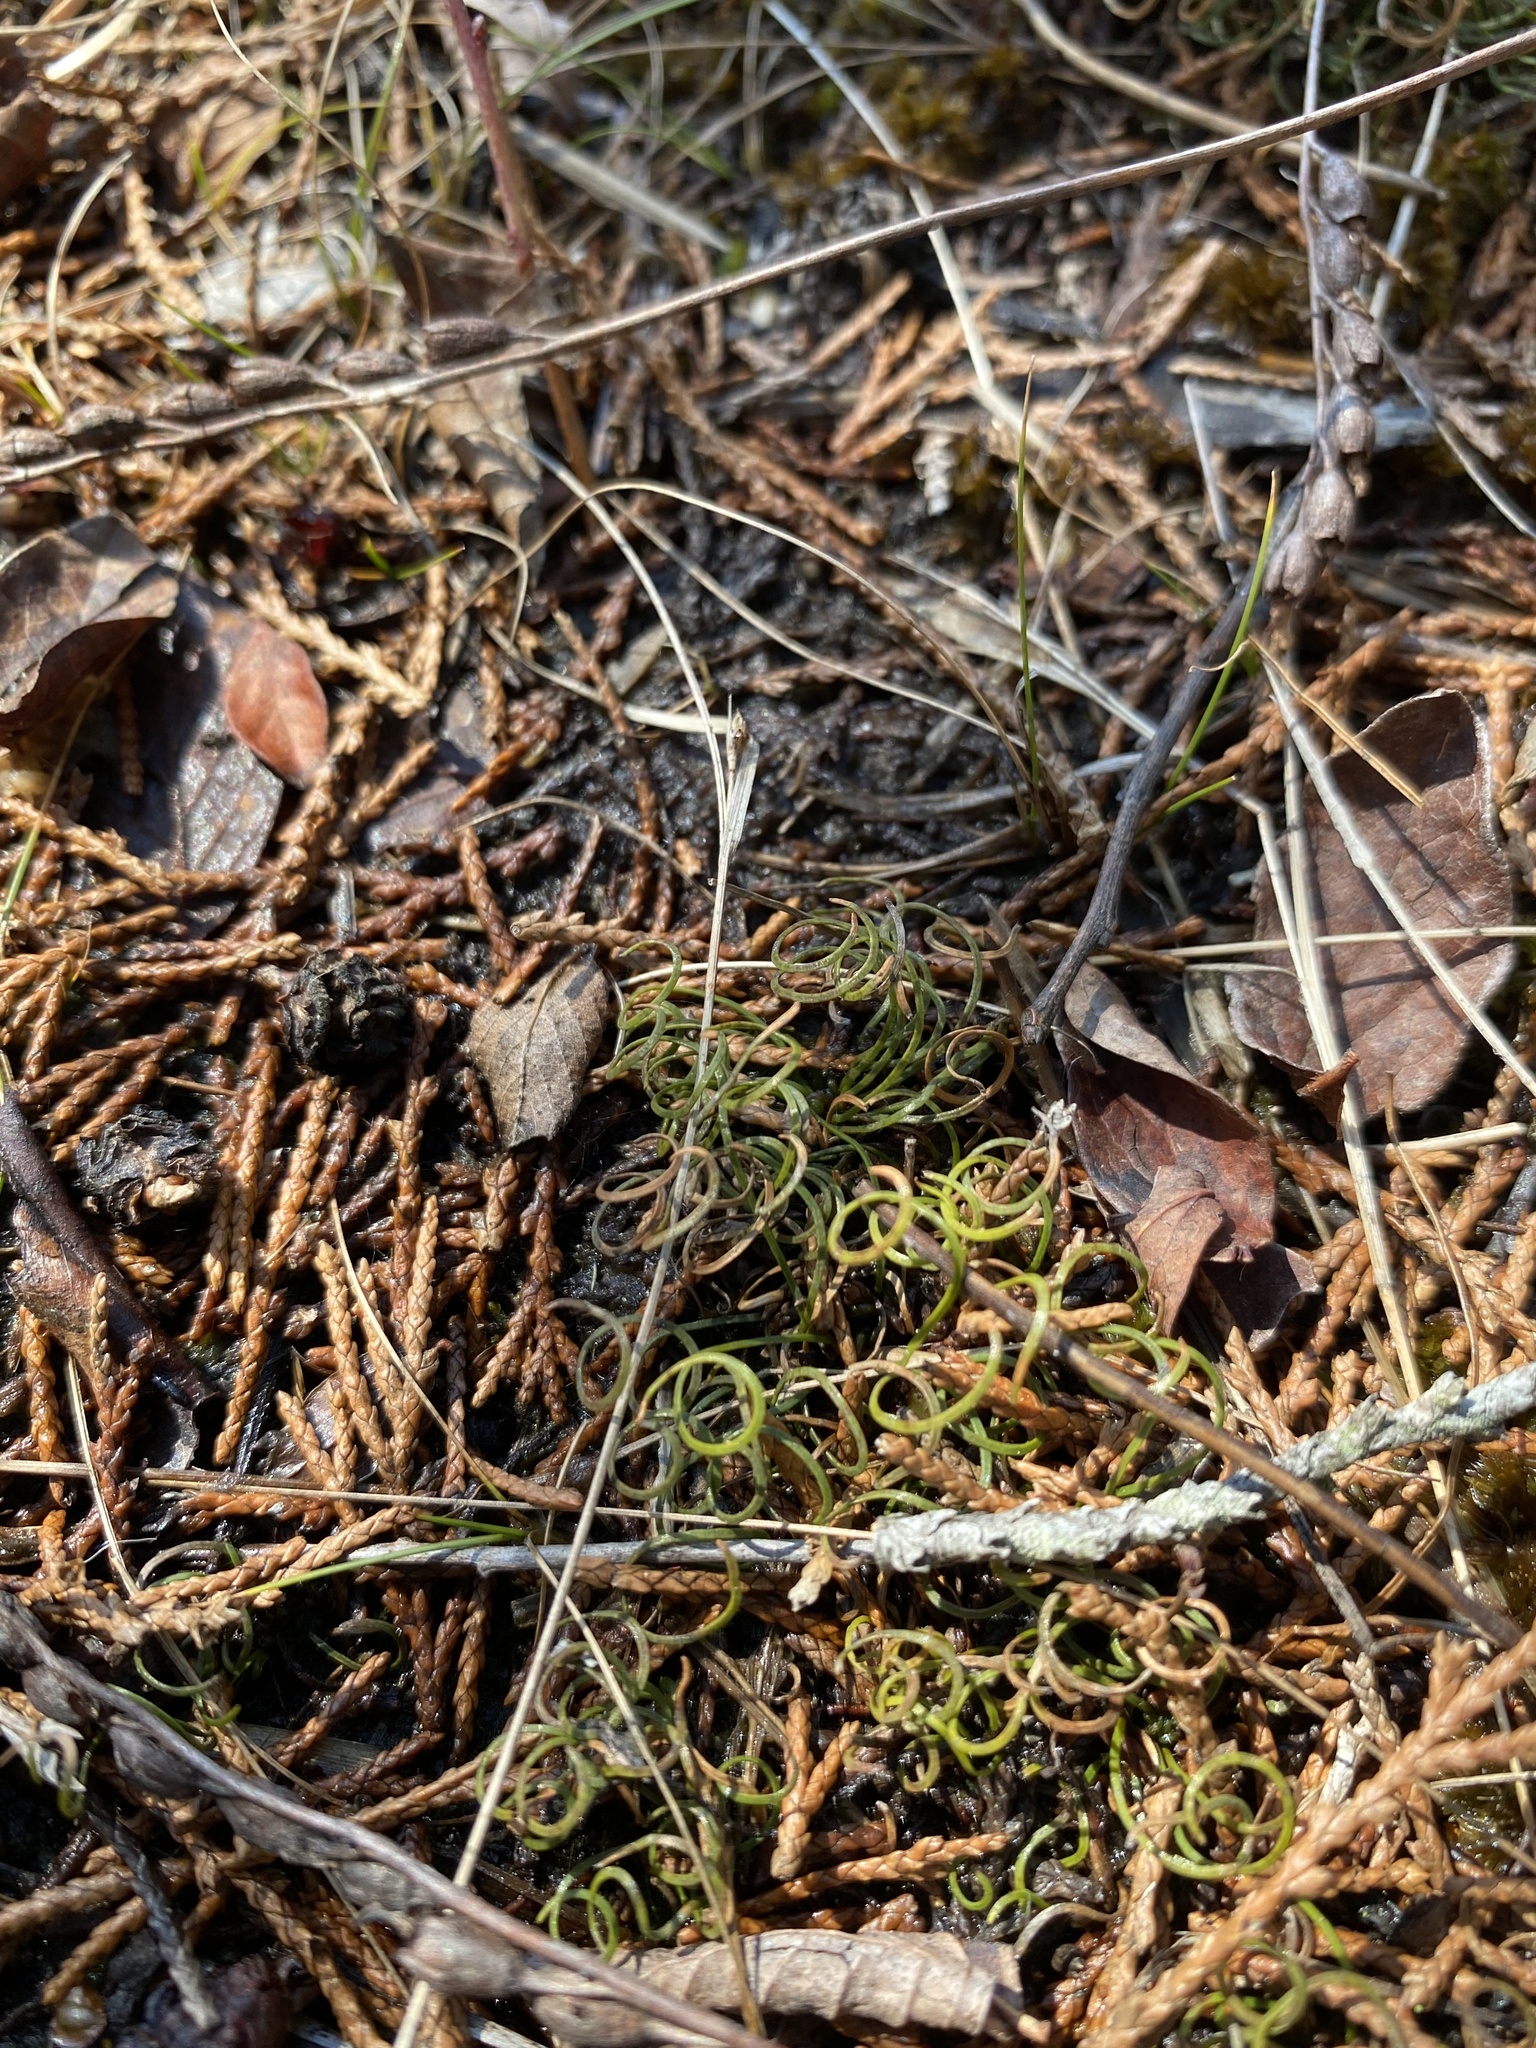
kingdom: Plantae
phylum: Tracheophyta
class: Polypodiopsida
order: Schizaeales
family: Schizaeaceae
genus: Schizaea
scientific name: Schizaea pusilla
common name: Curly-grass fern
